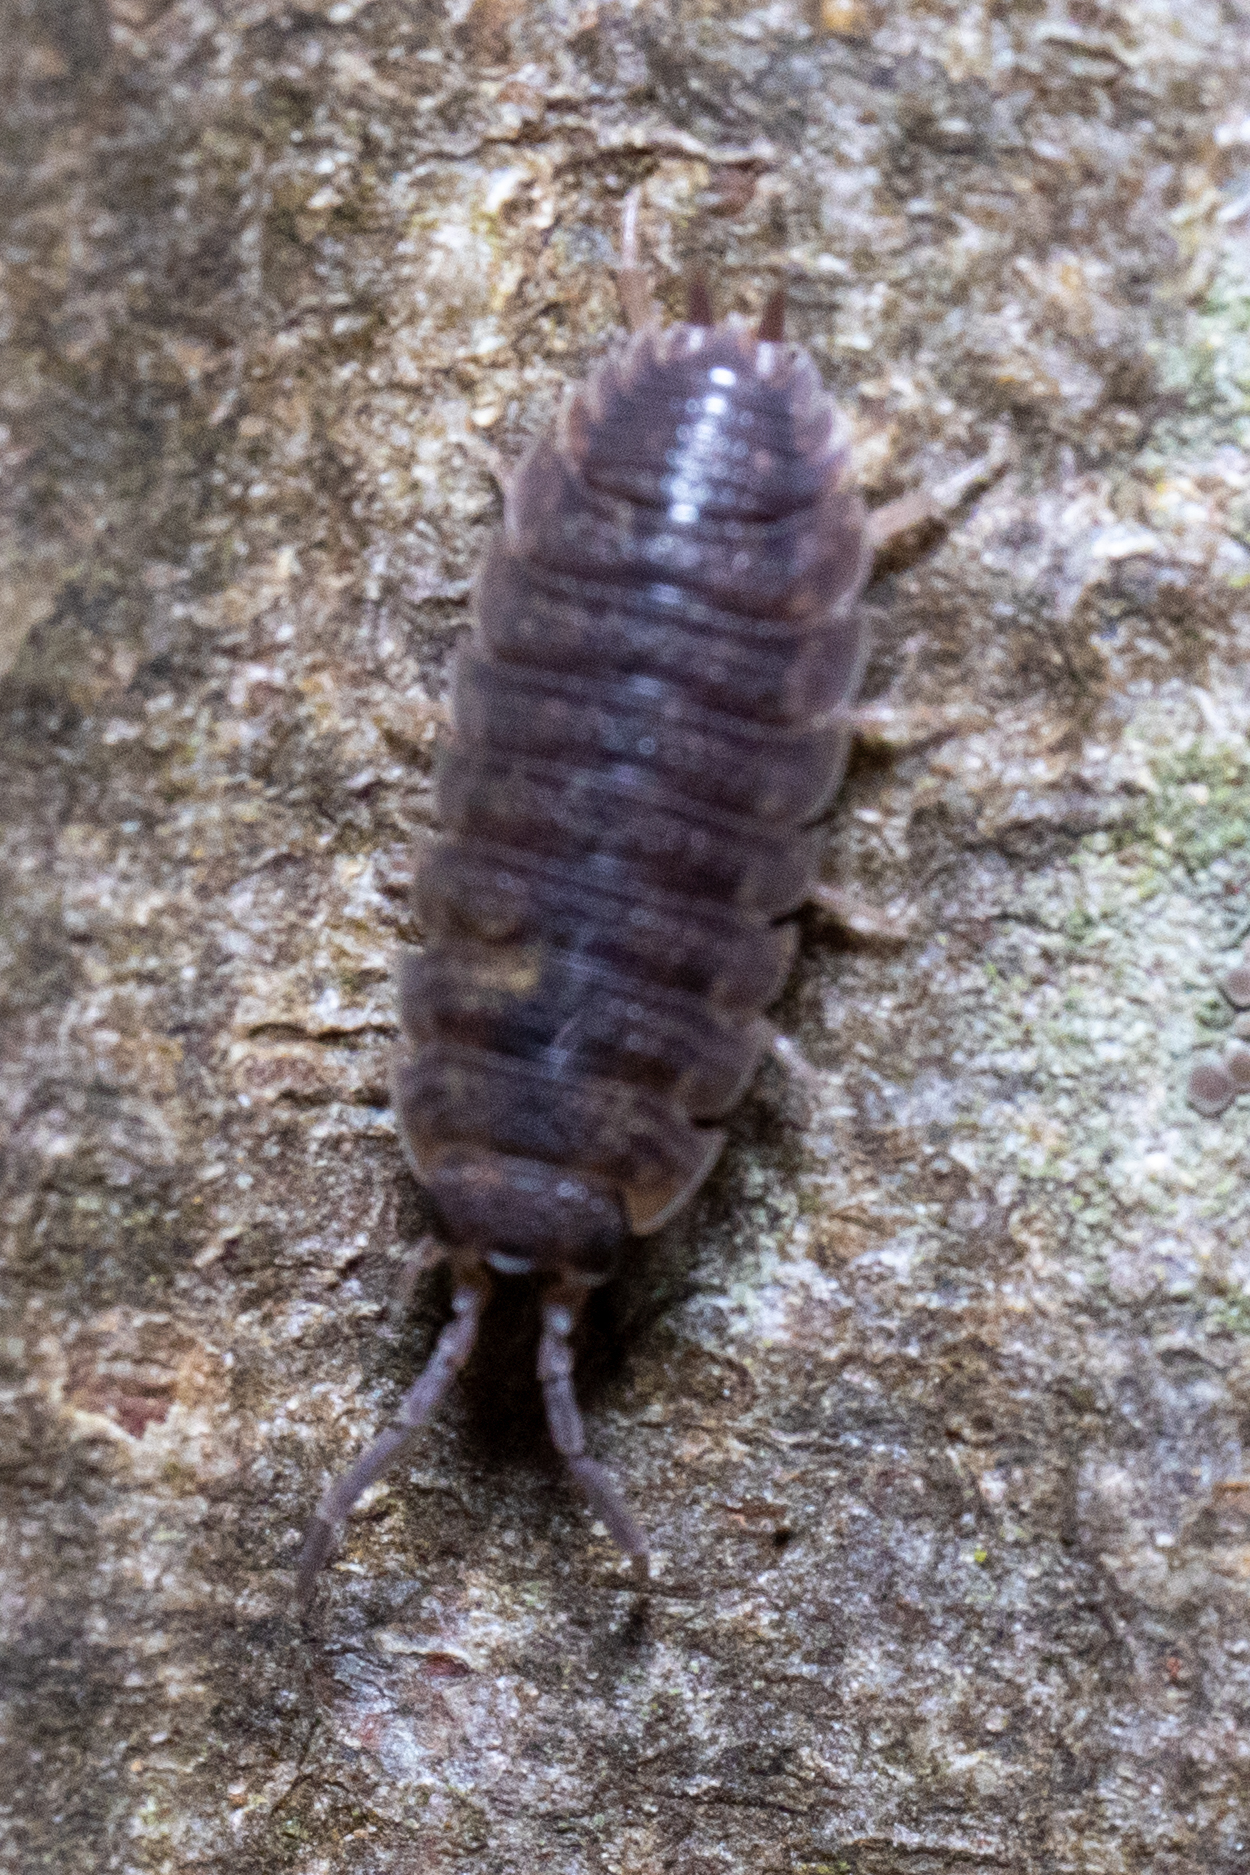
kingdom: Animalia
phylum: Arthropoda
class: Malacostraca
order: Isopoda
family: Porcellionidae
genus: Porcellio
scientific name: Porcellio scaber
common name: Common rough woodlouse
